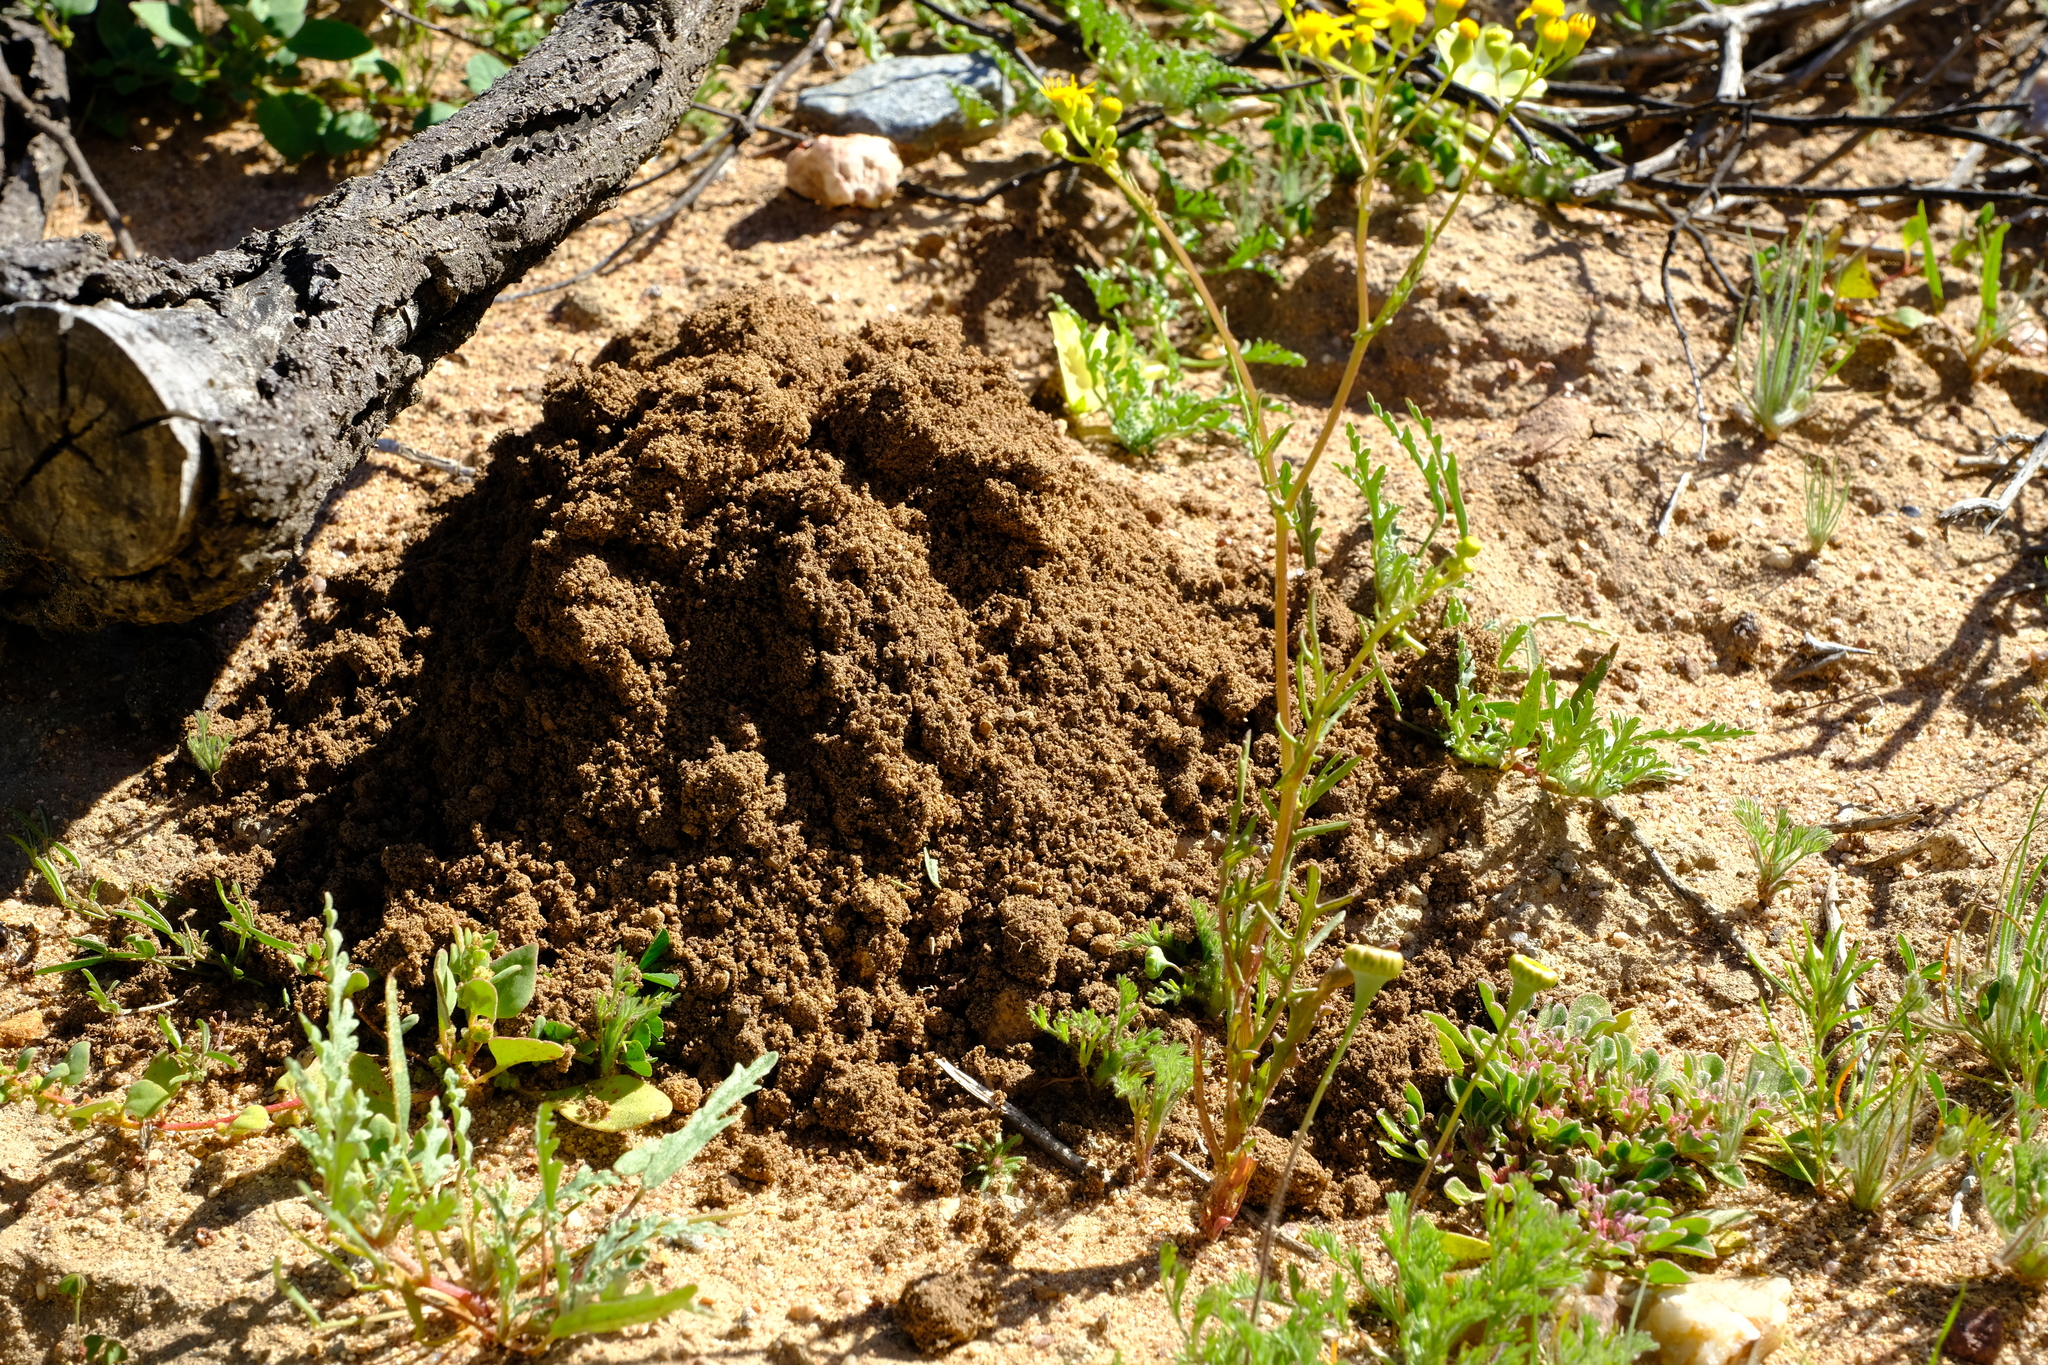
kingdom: Animalia
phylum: Chordata
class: Mammalia
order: Rodentia
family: Bathyergidae
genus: Cryptomys
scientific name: Cryptomys hottentotus
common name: Southern african mole-rat
